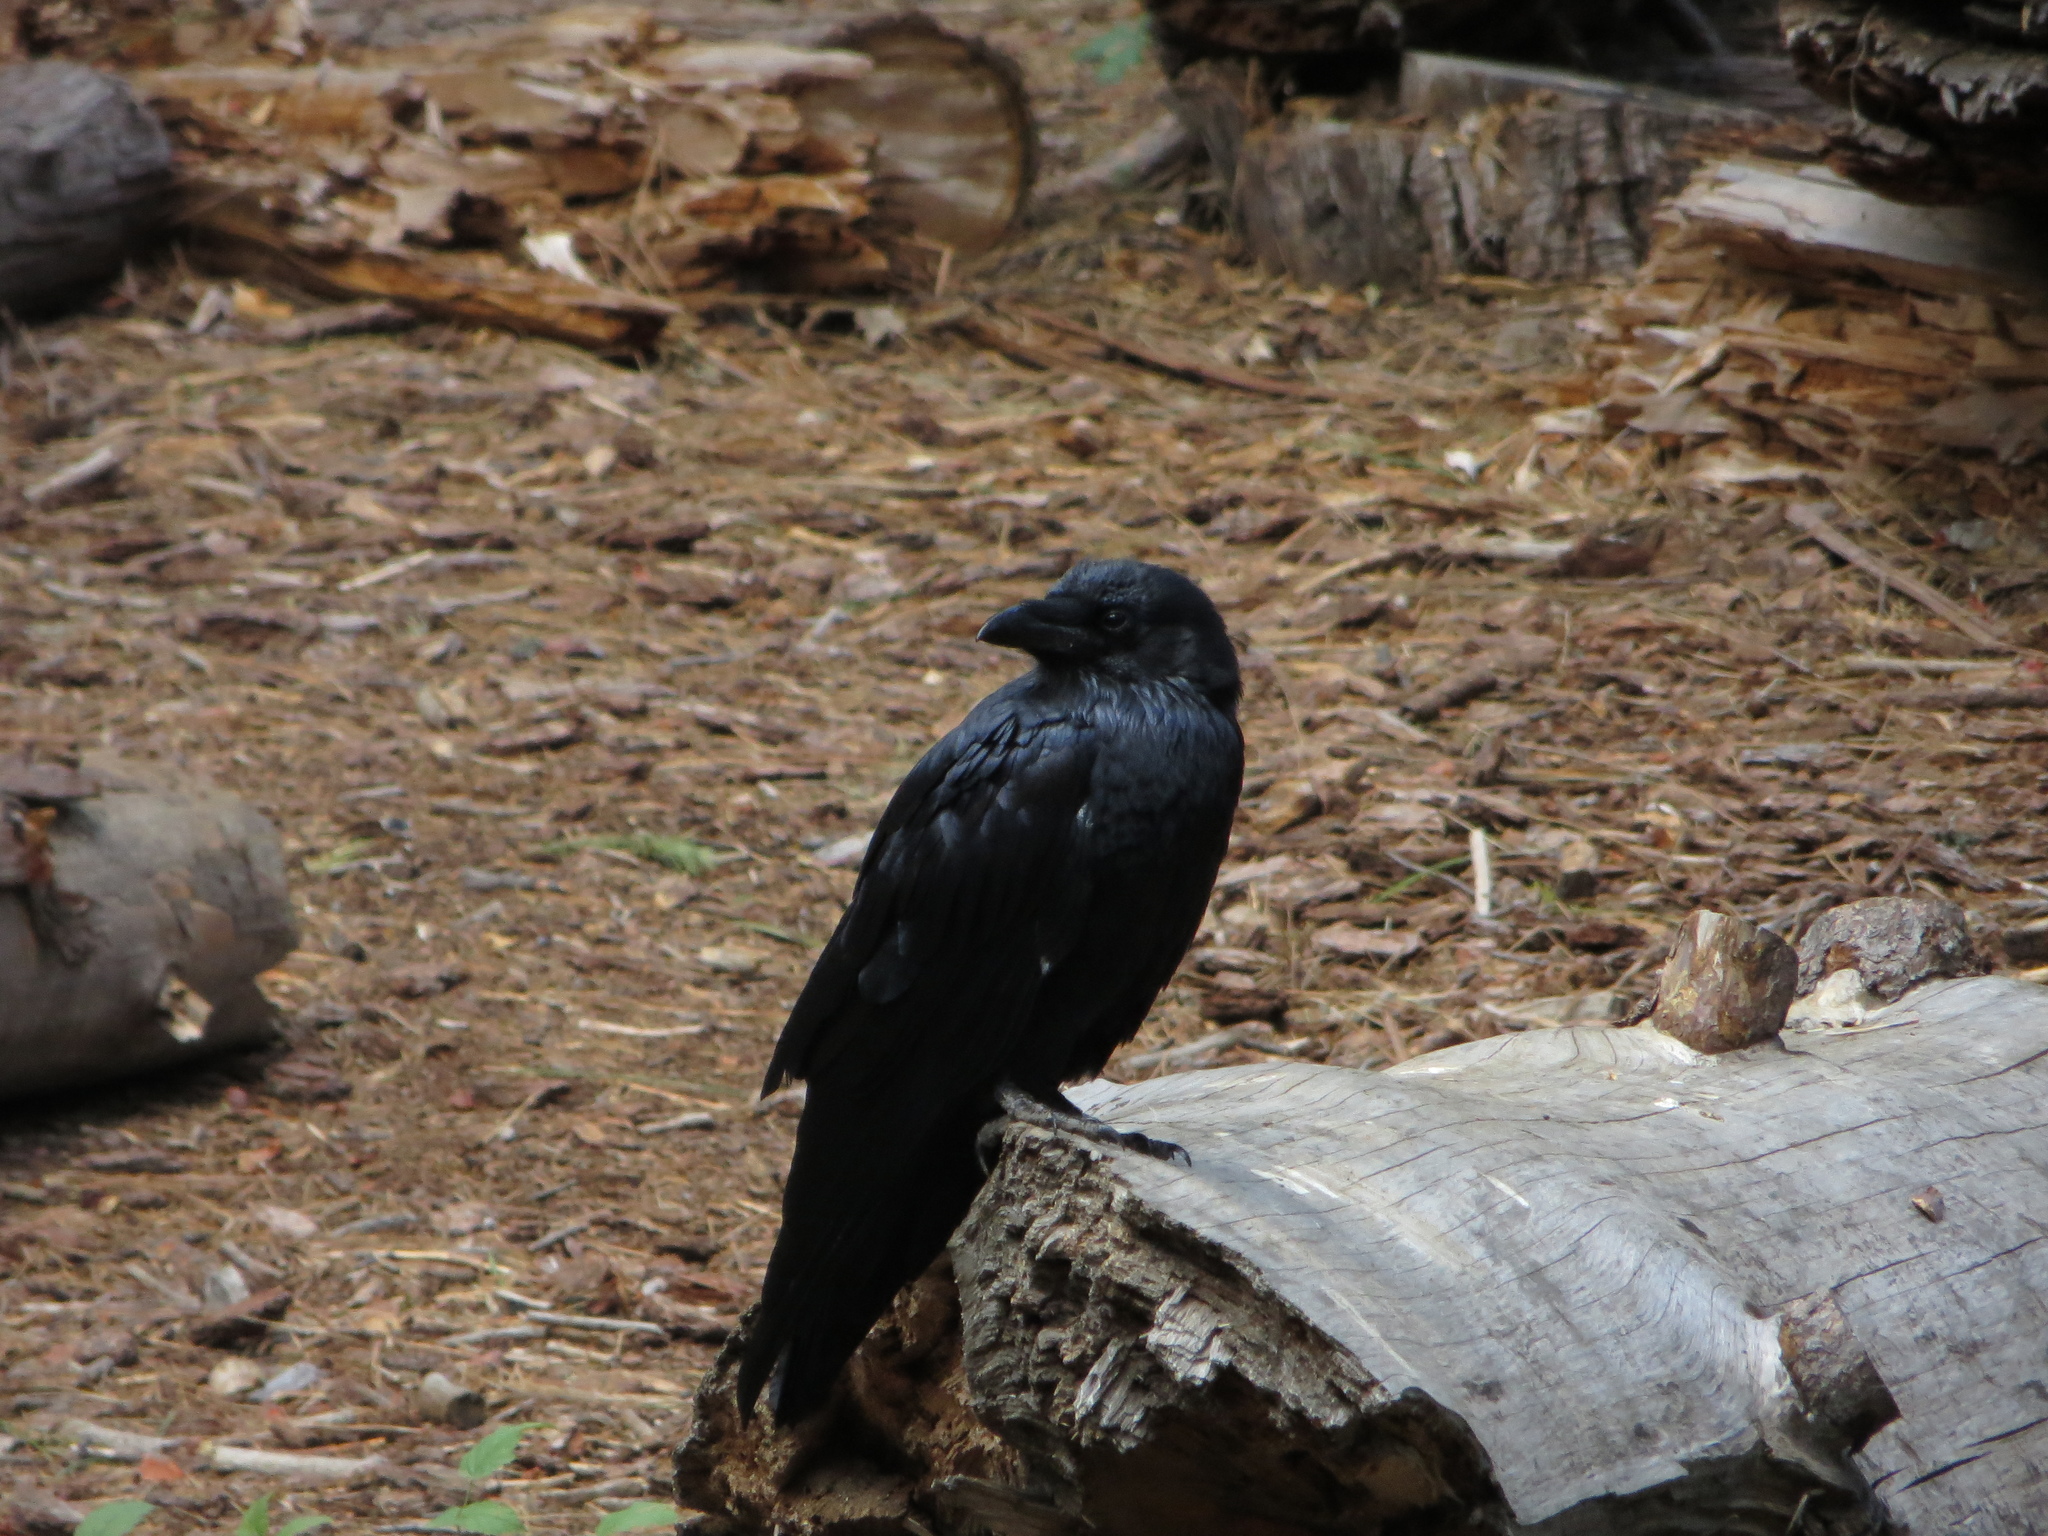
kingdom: Animalia
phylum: Chordata
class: Aves
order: Passeriformes
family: Corvidae
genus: Corvus
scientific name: Corvus corax
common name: Common raven
